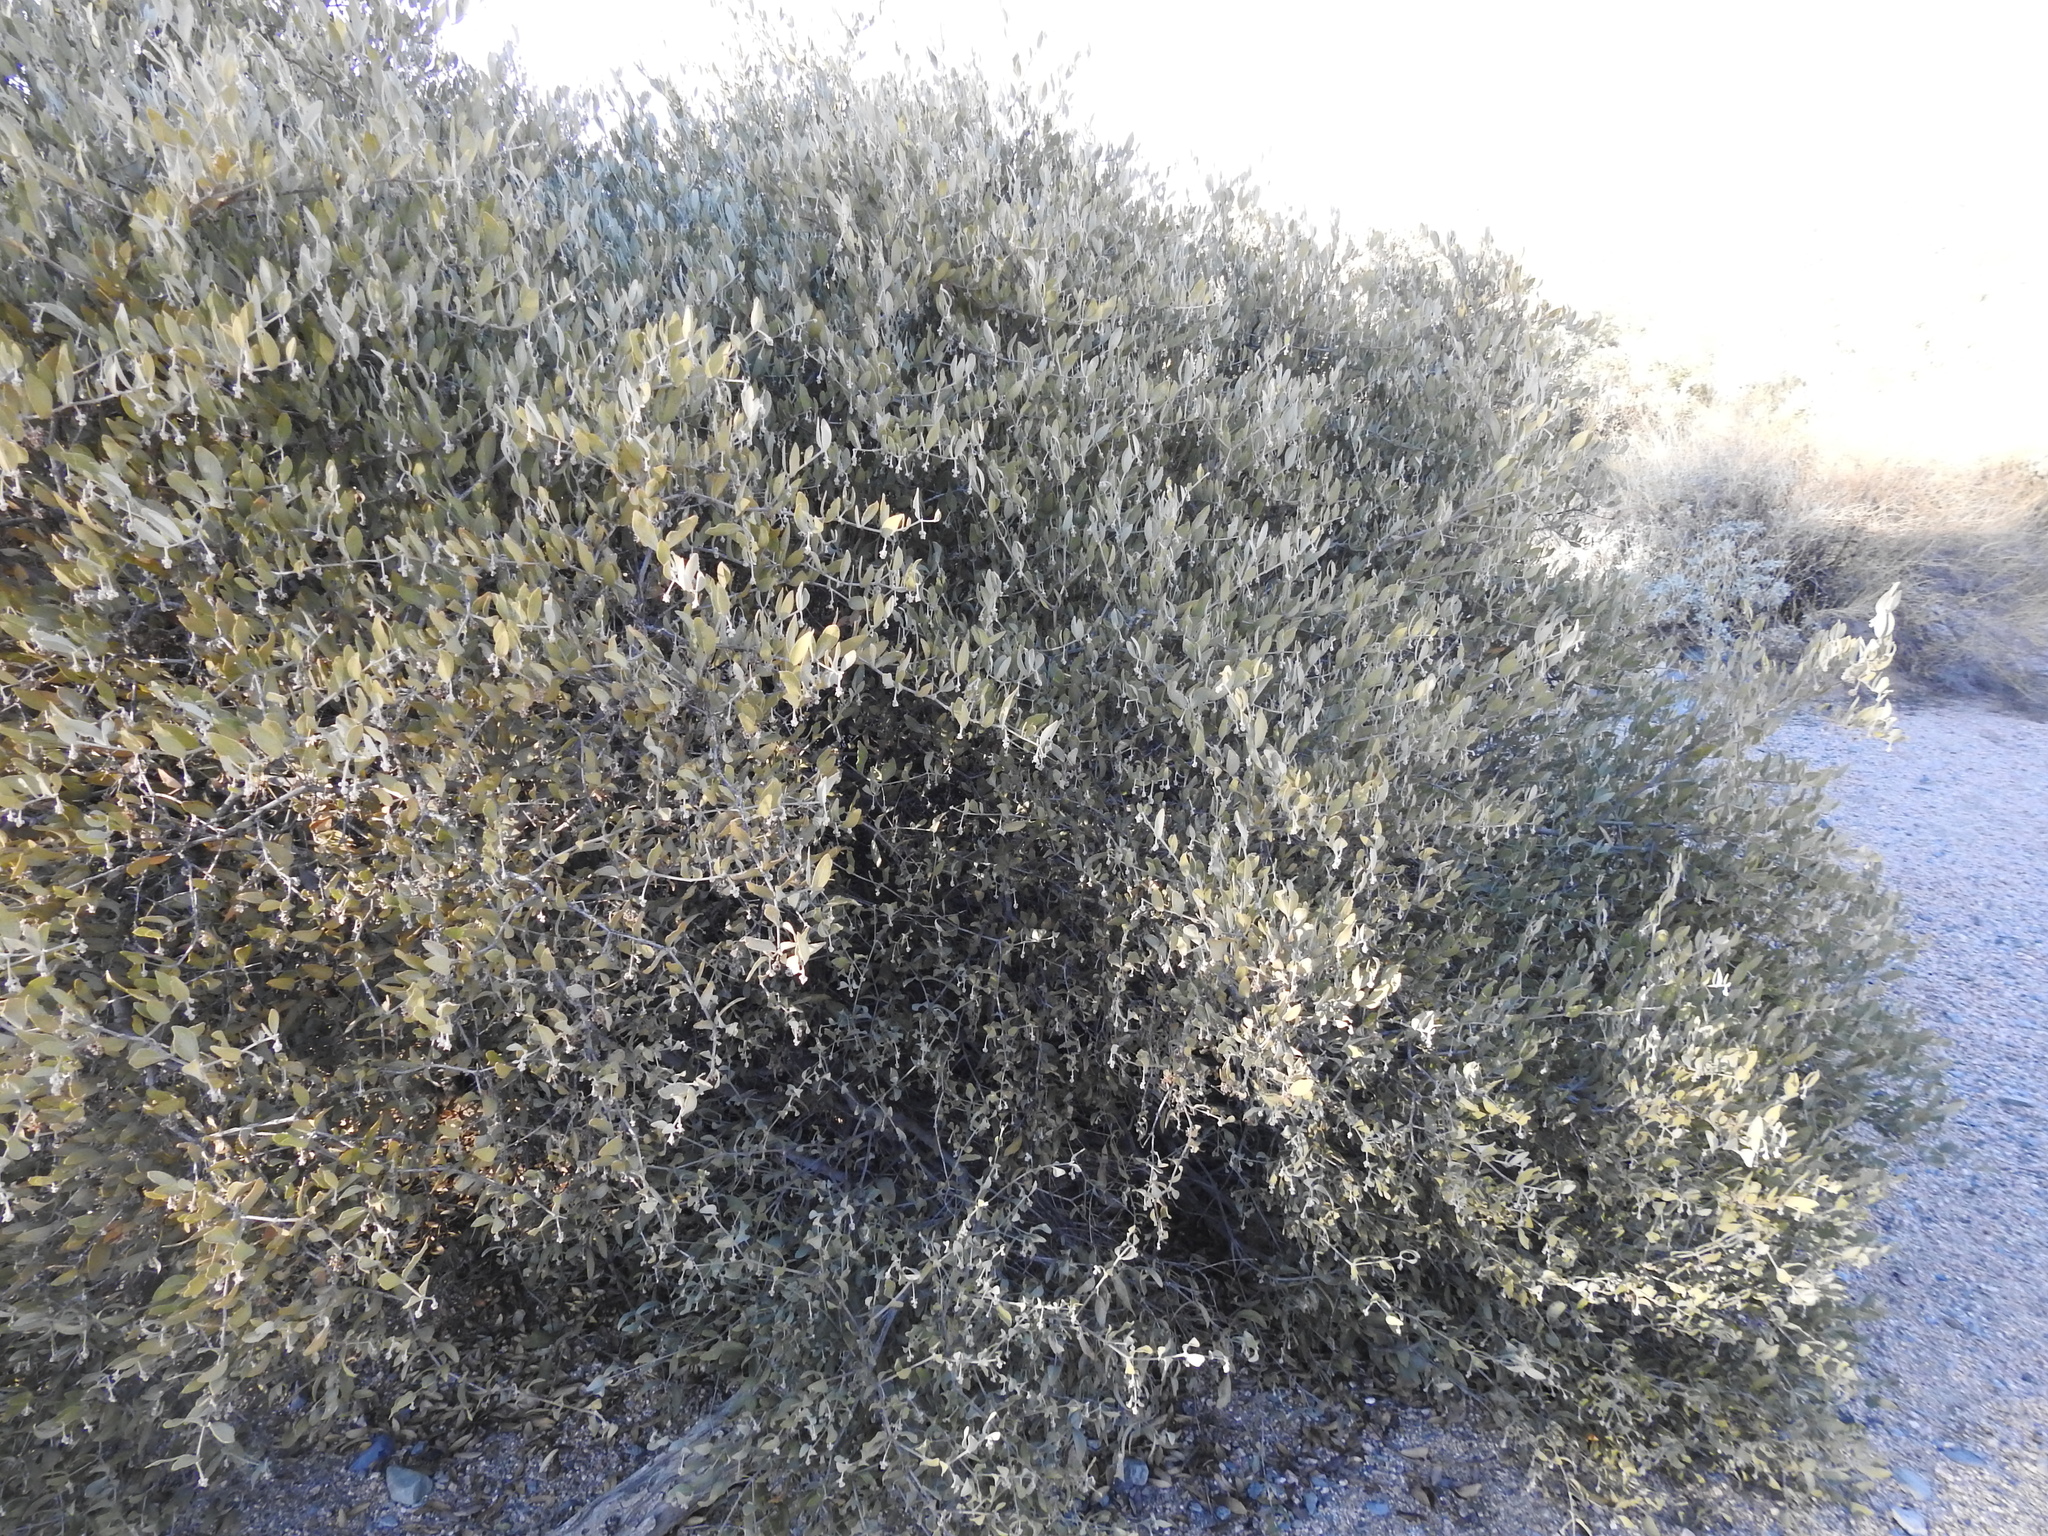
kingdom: Plantae
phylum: Tracheophyta
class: Magnoliopsida
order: Caryophyllales
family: Simmondsiaceae
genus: Simmondsia
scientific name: Simmondsia chinensis
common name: Jojoba
